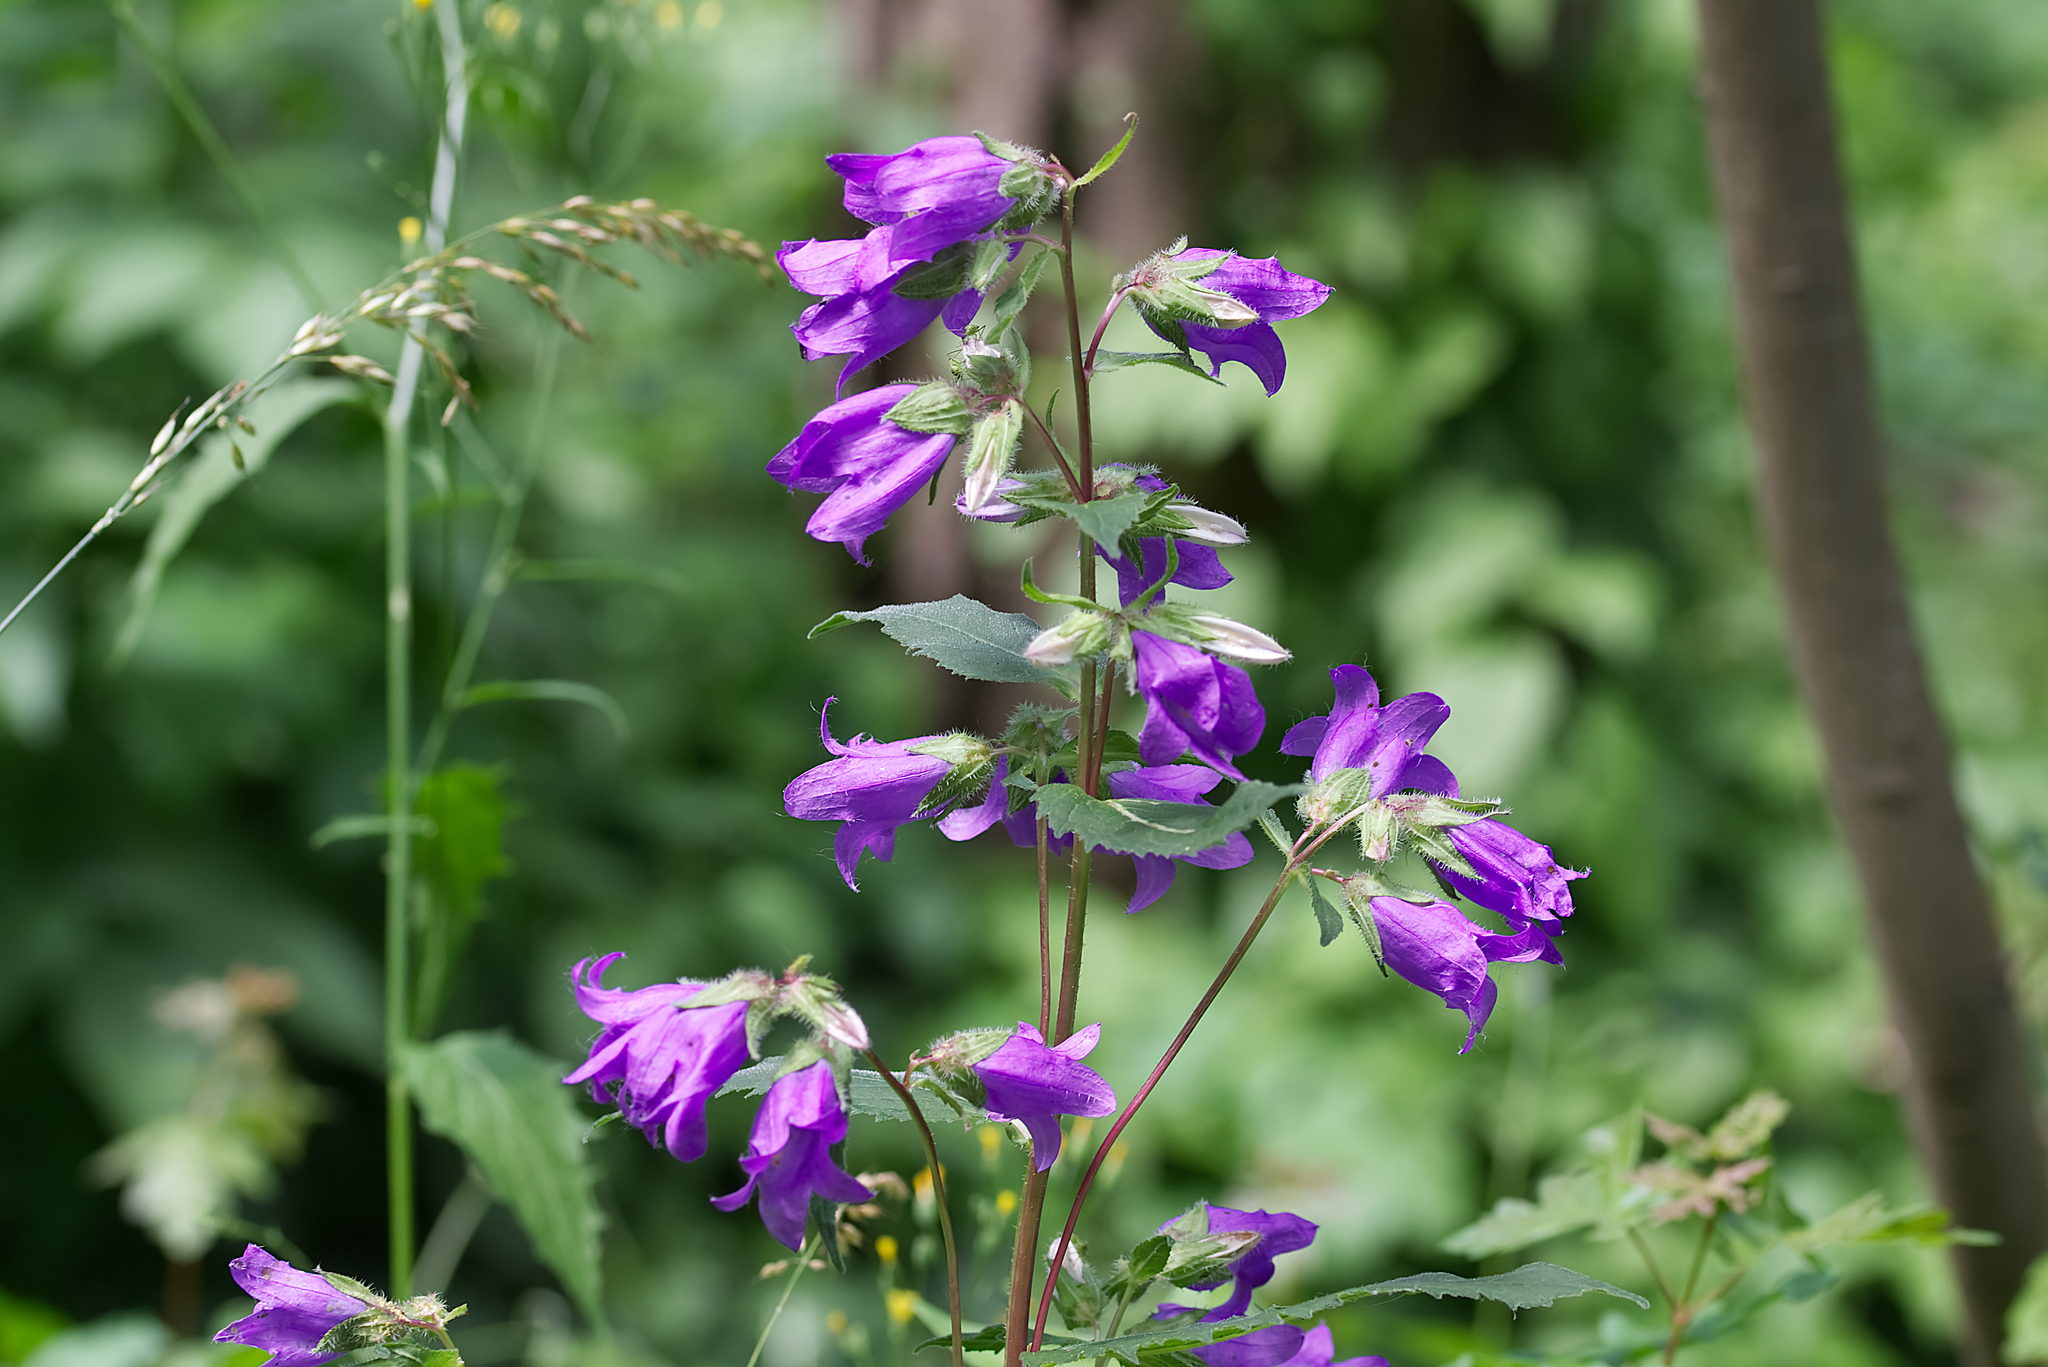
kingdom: Plantae
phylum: Tracheophyta
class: Magnoliopsida
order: Asterales
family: Campanulaceae
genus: Campanula
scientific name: Campanula trachelium
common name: Nettle-leaved bellflower
